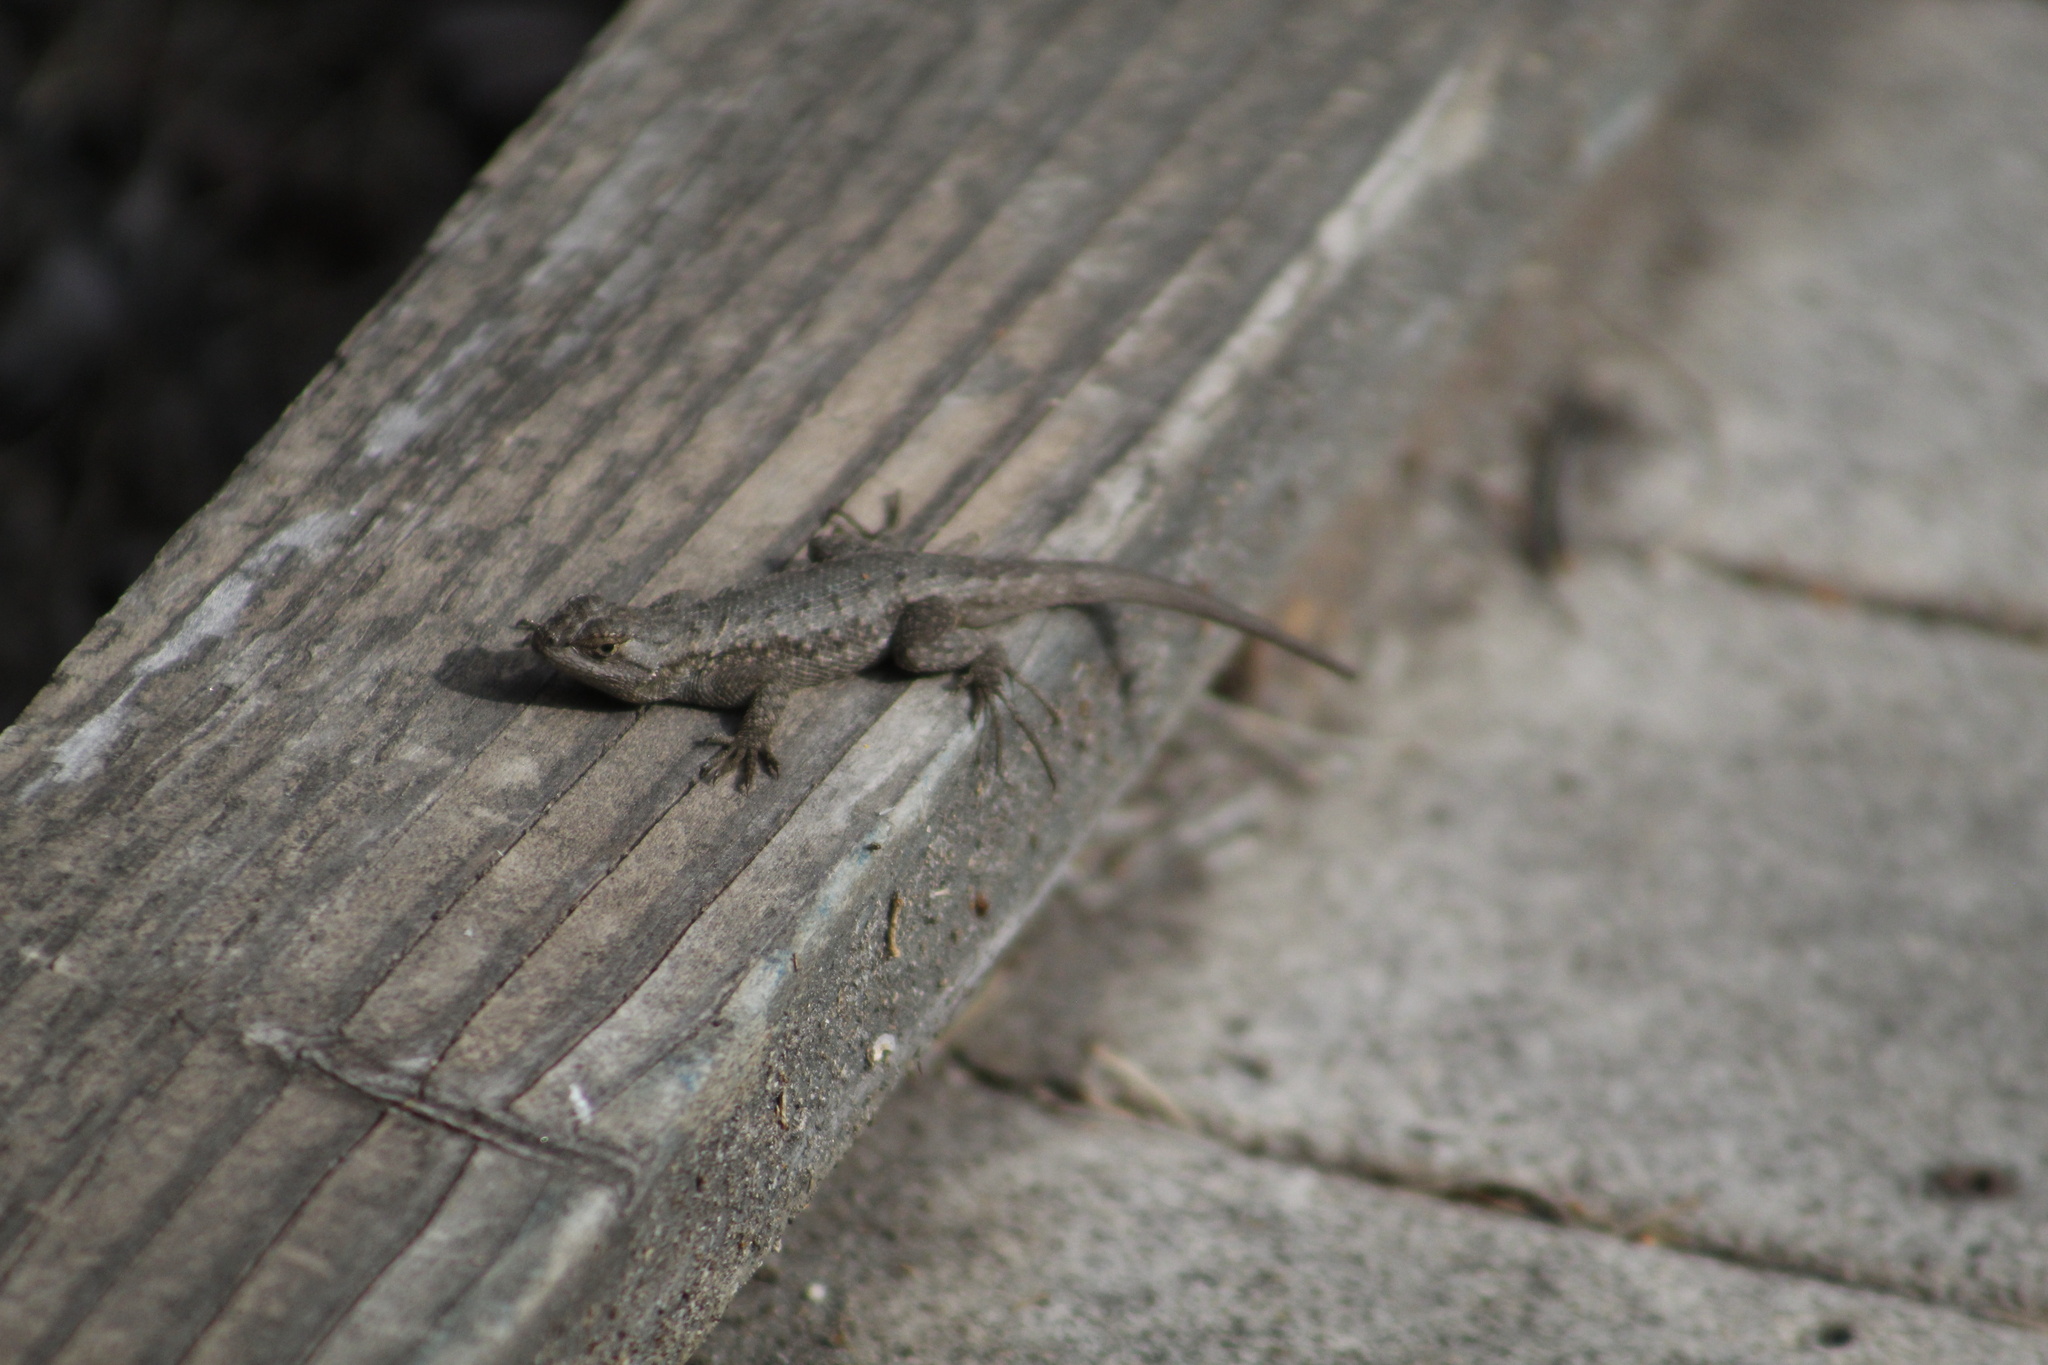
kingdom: Animalia
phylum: Chordata
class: Squamata
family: Phrynosomatidae
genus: Sceloporus
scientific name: Sceloporus occidentalis
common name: Western fence lizard
